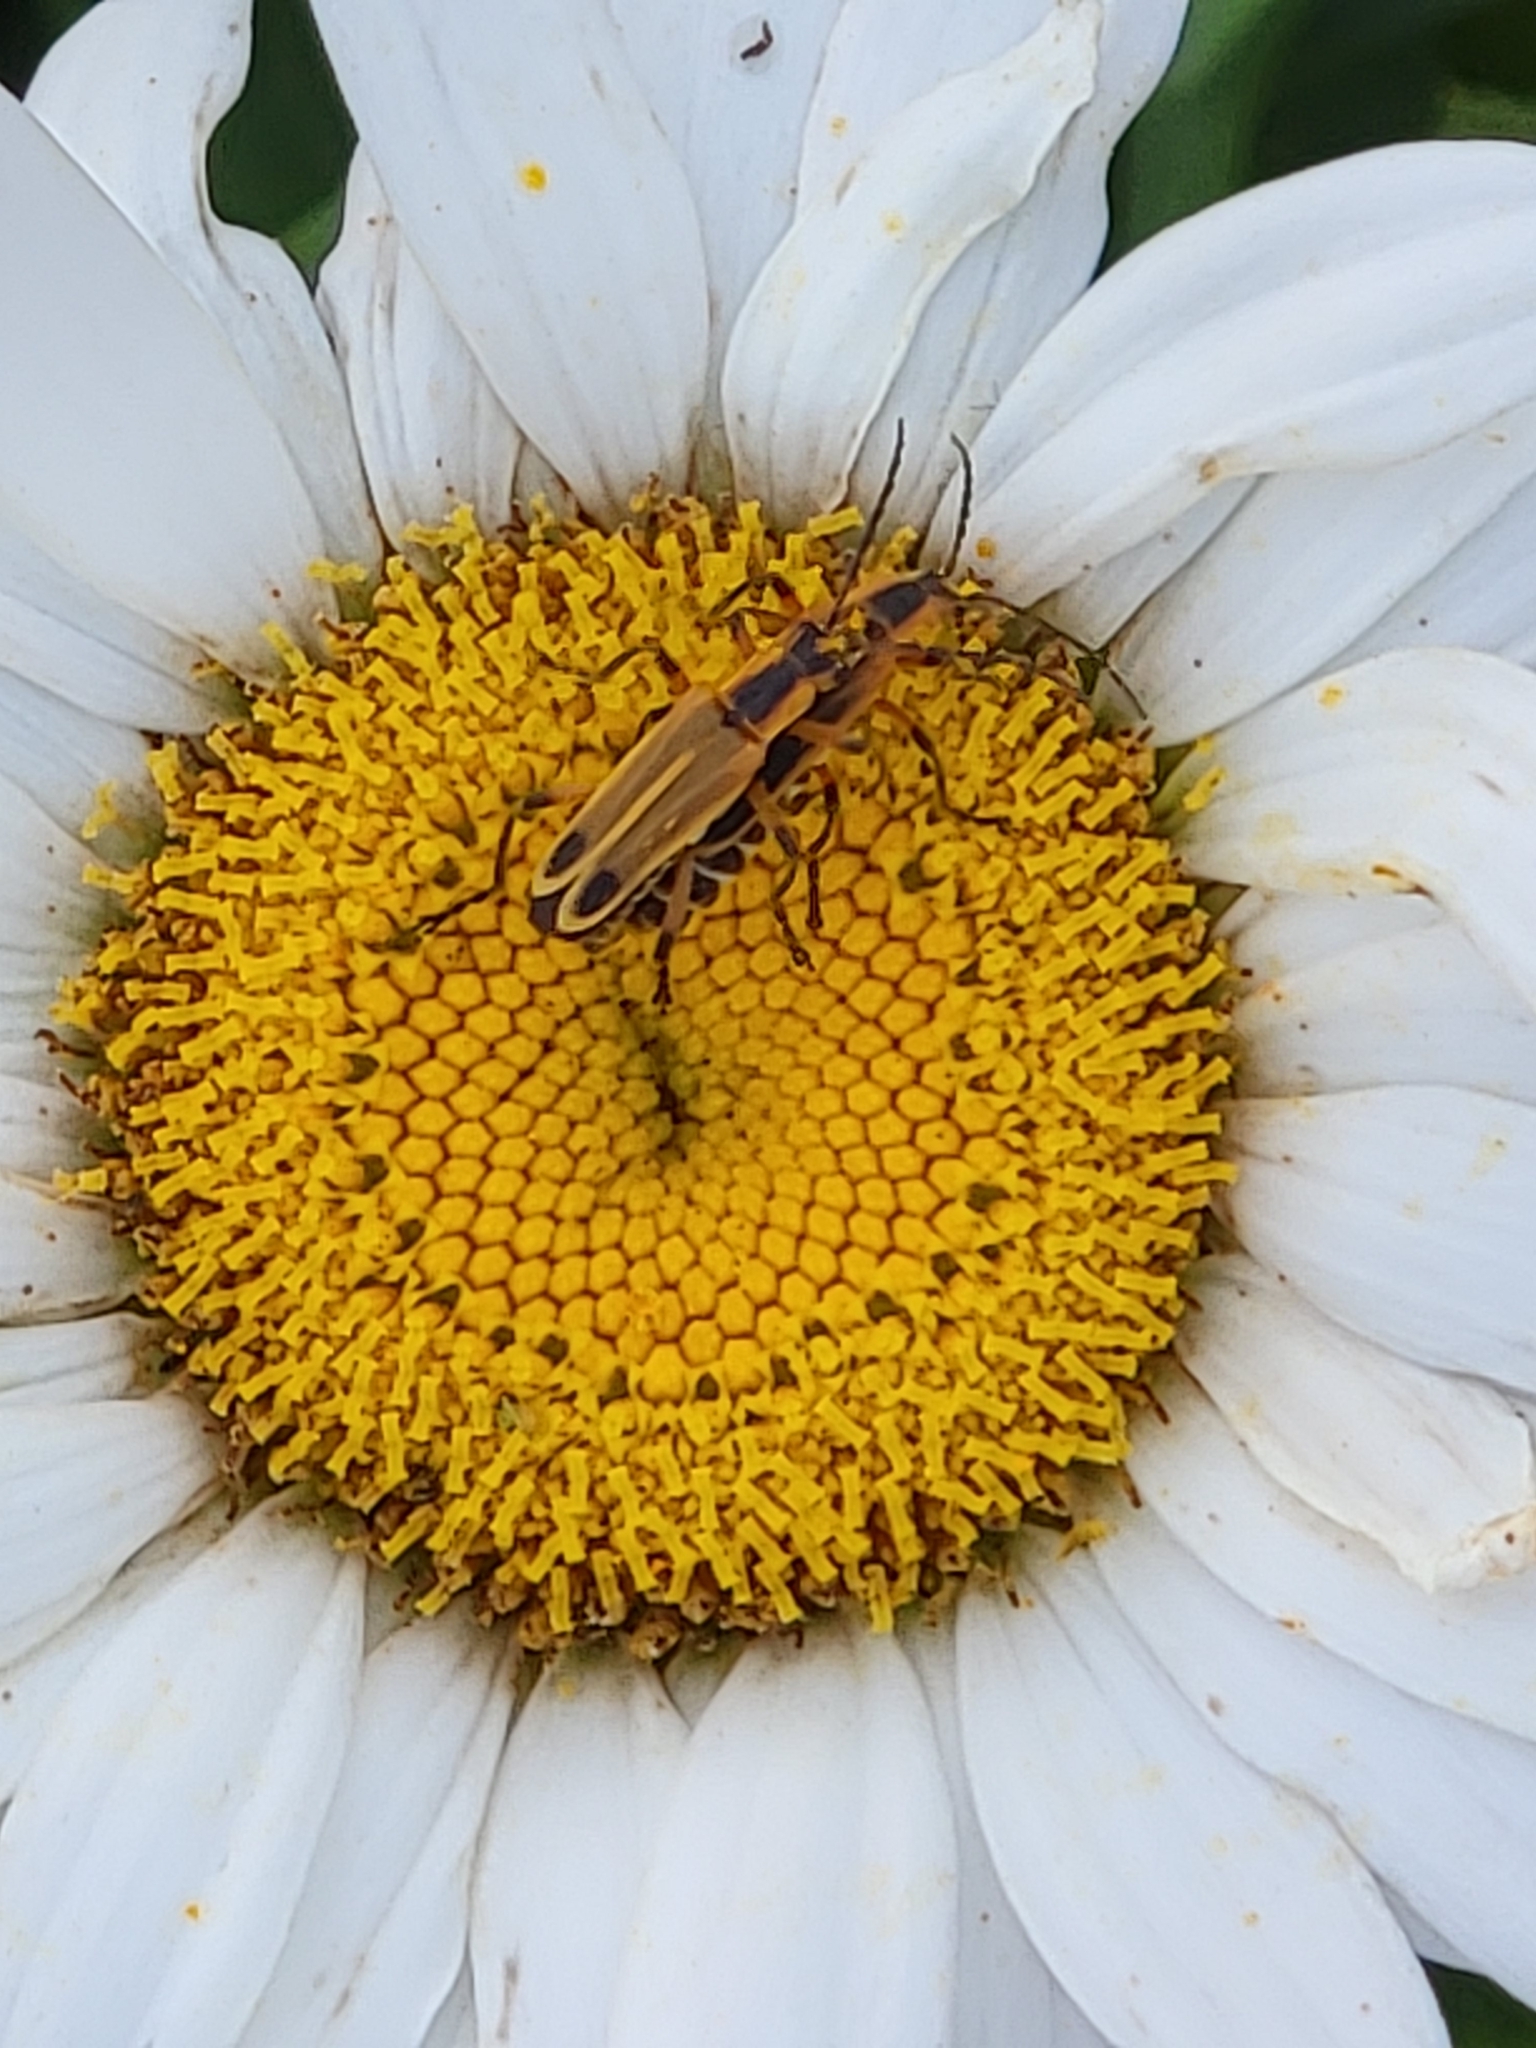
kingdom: Animalia
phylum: Arthropoda
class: Insecta
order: Coleoptera
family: Cantharidae
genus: Chauliognathus
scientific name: Chauliognathus marginatus
